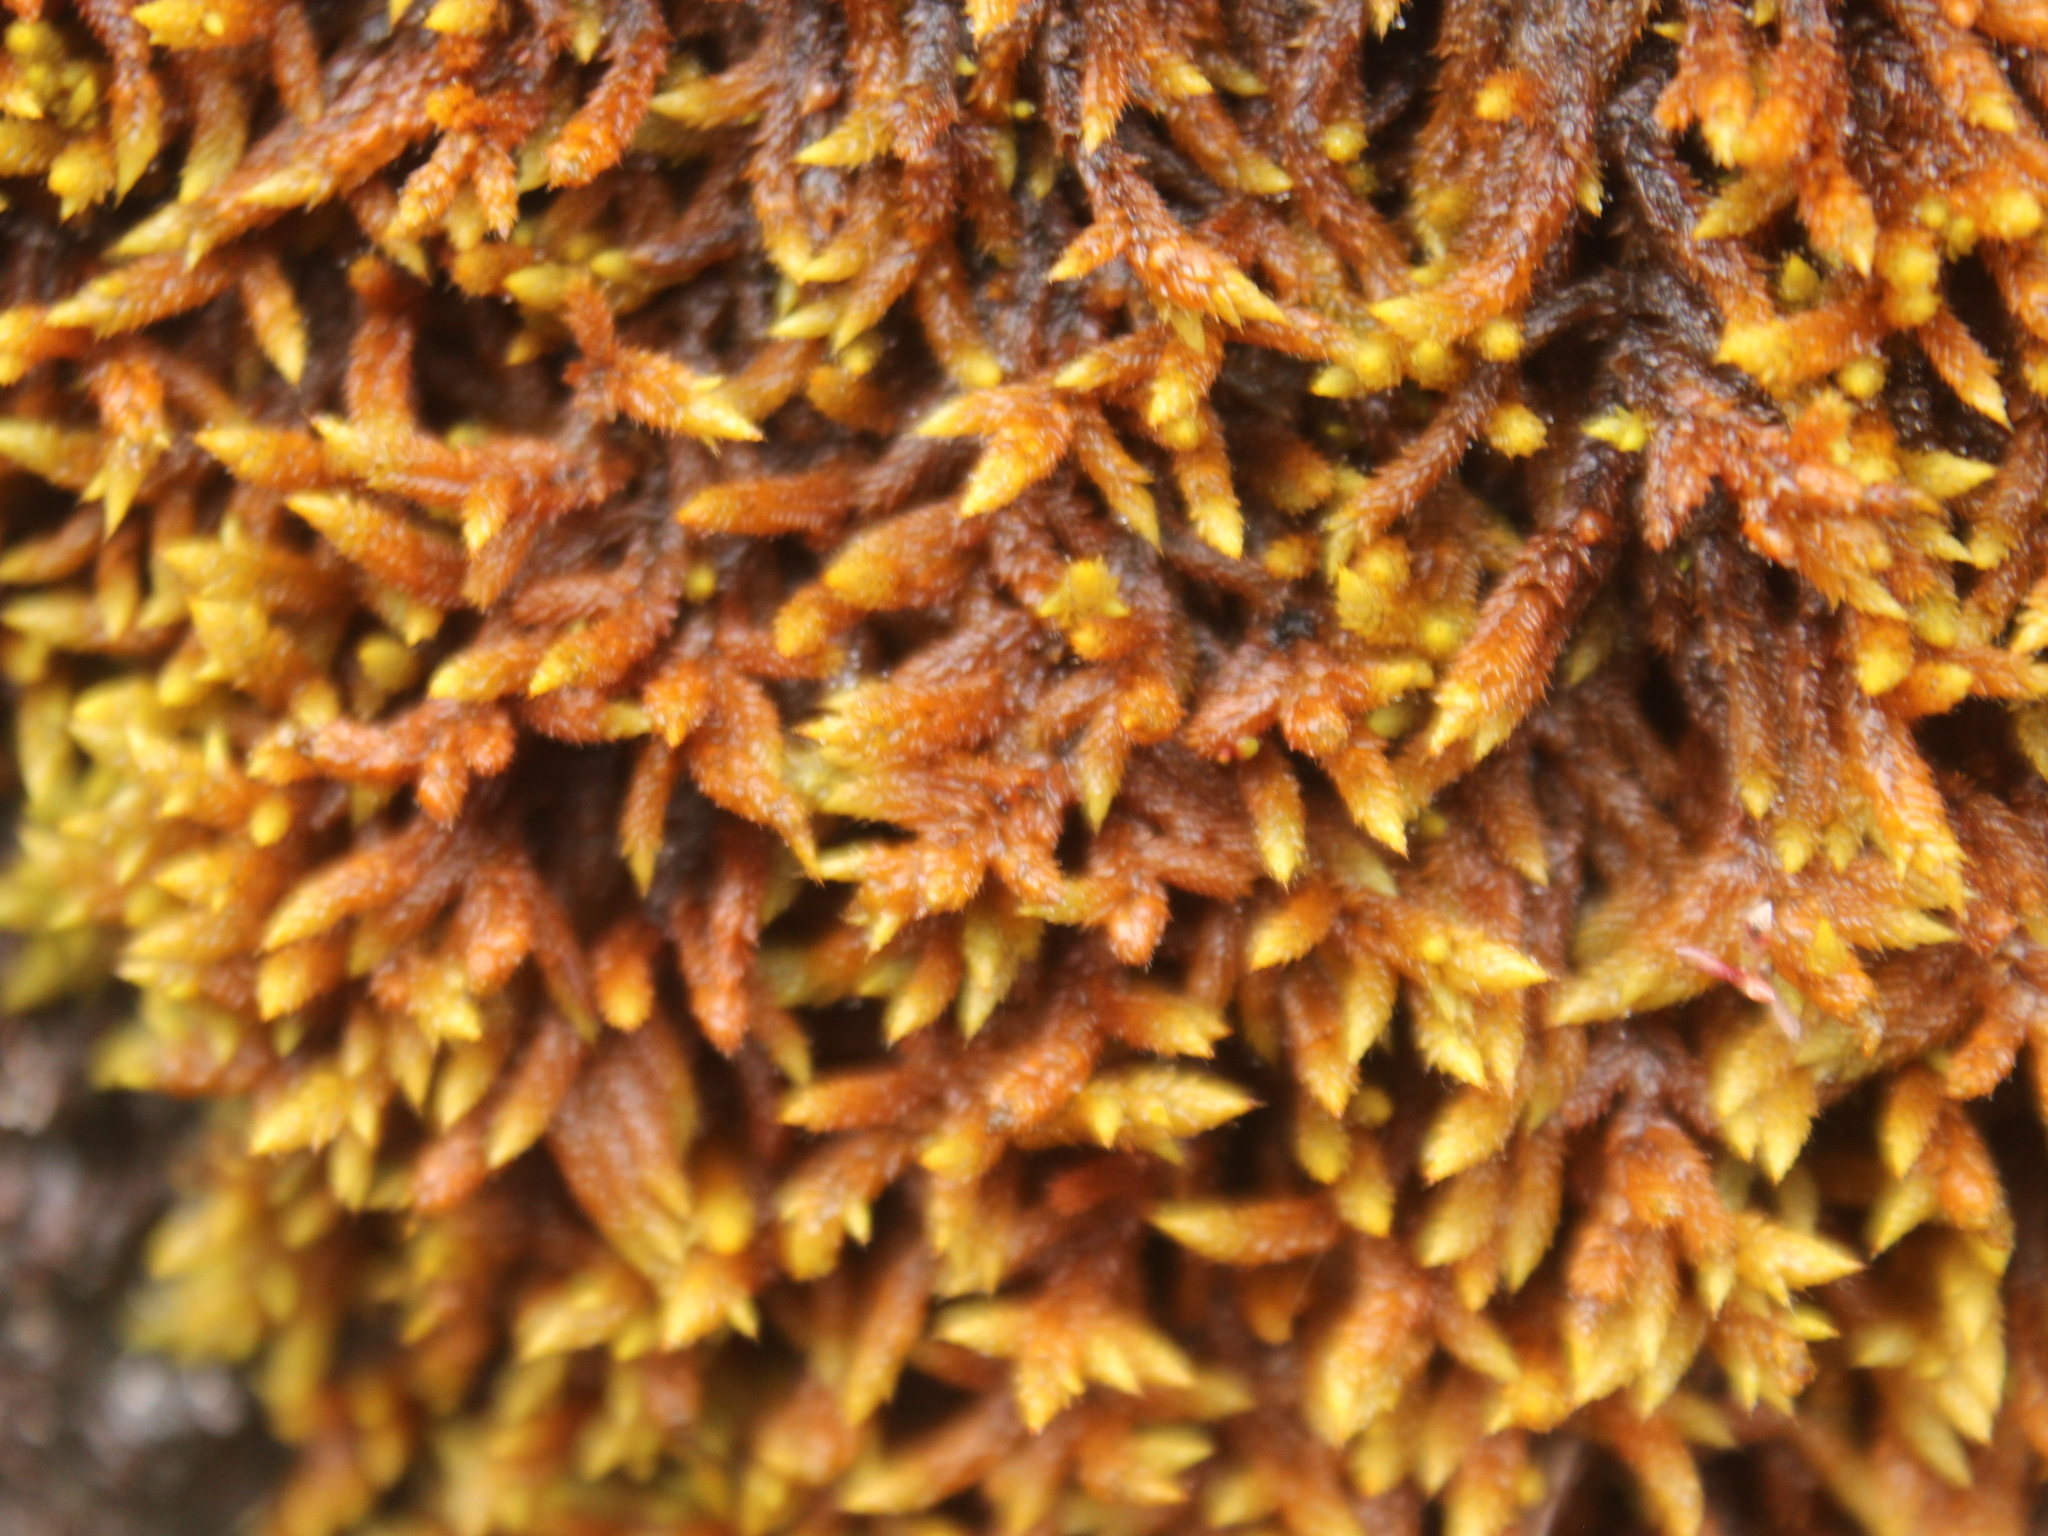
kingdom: Plantae
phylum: Bryophyta
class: Bryopsida
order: Hedwigiales
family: Hedwigiaceae
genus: Rhacocarpus
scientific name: Rhacocarpus purpurascens
